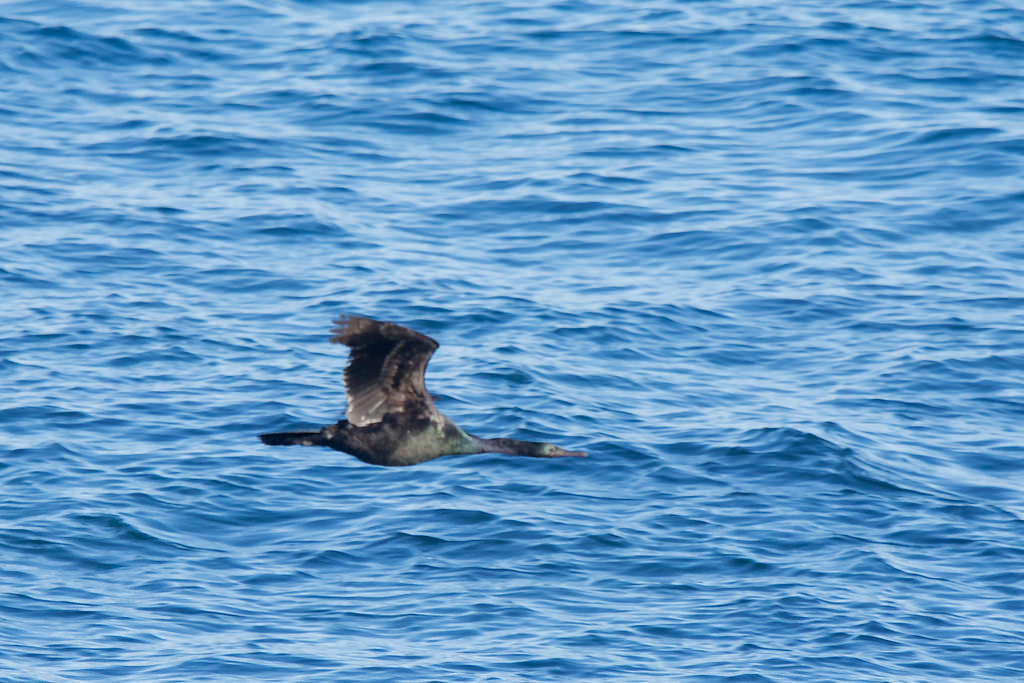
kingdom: Animalia
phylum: Chordata
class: Aves
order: Suliformes
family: Phalacrocoracidae
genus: Phalacrocorax
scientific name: Phalacrocorax pelagicus
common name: Pelagic cormorant
